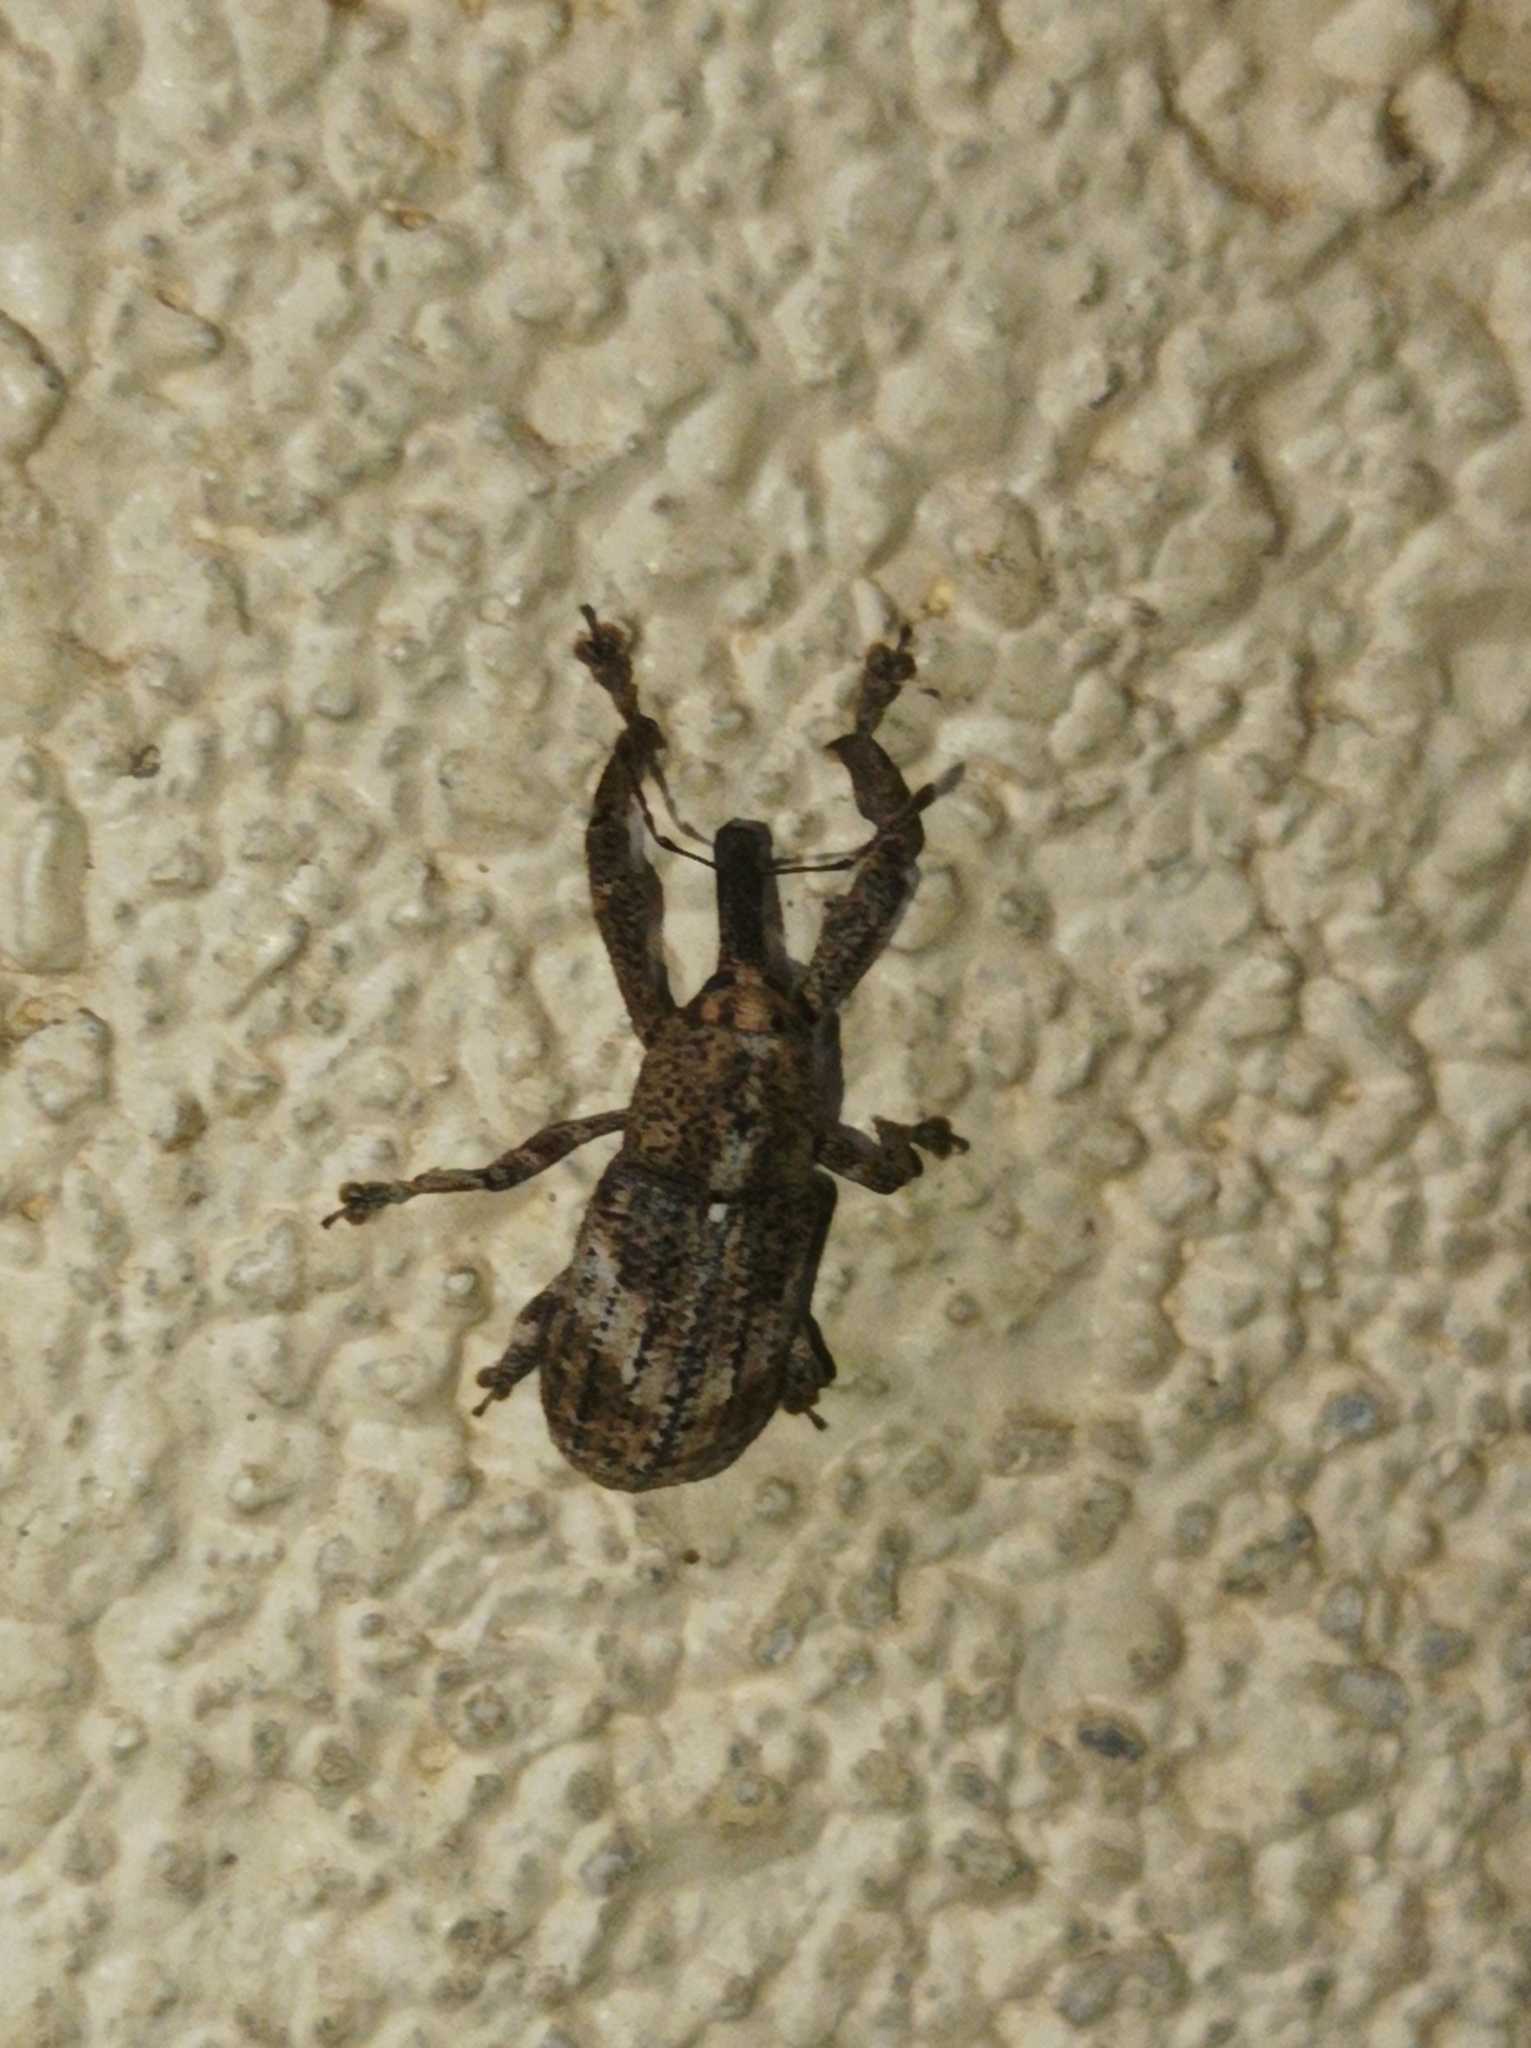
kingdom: Animalia
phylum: Arthropoda
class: Insecta
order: Coleoptera
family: Curculionidae
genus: Orthorhinus
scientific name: Orthorhinus leseleuci
